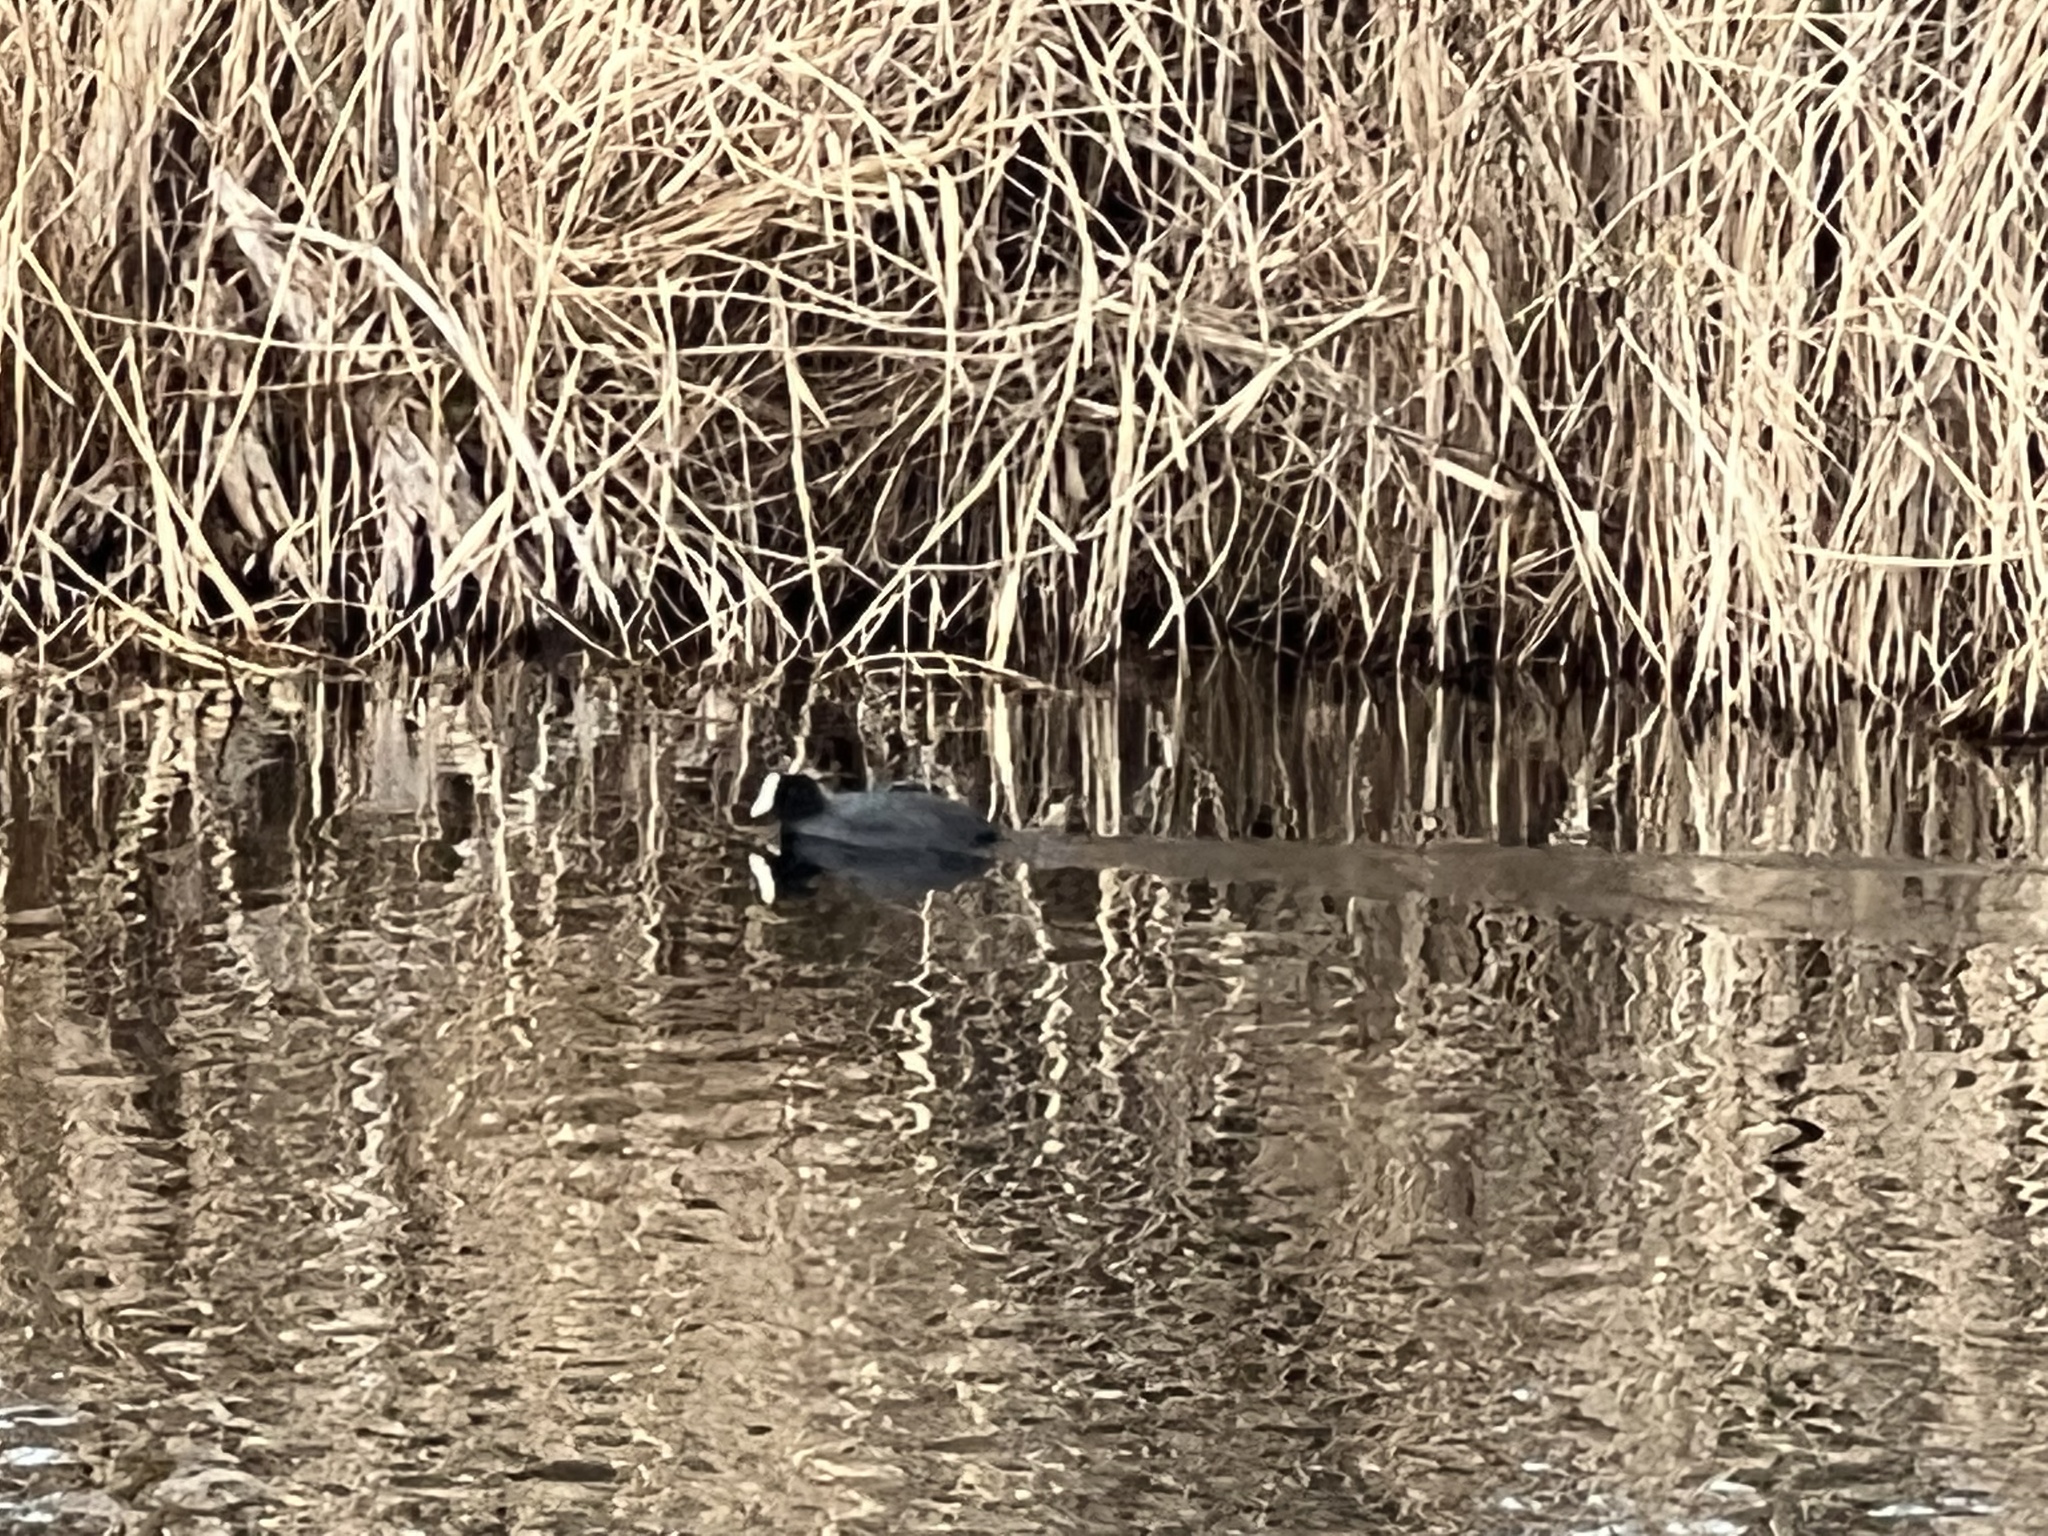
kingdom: Animalia
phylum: Chordata
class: Aves
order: Gruiformes
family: Rallidae
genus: Fulica
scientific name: Fulica atra
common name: Eurasian coot
